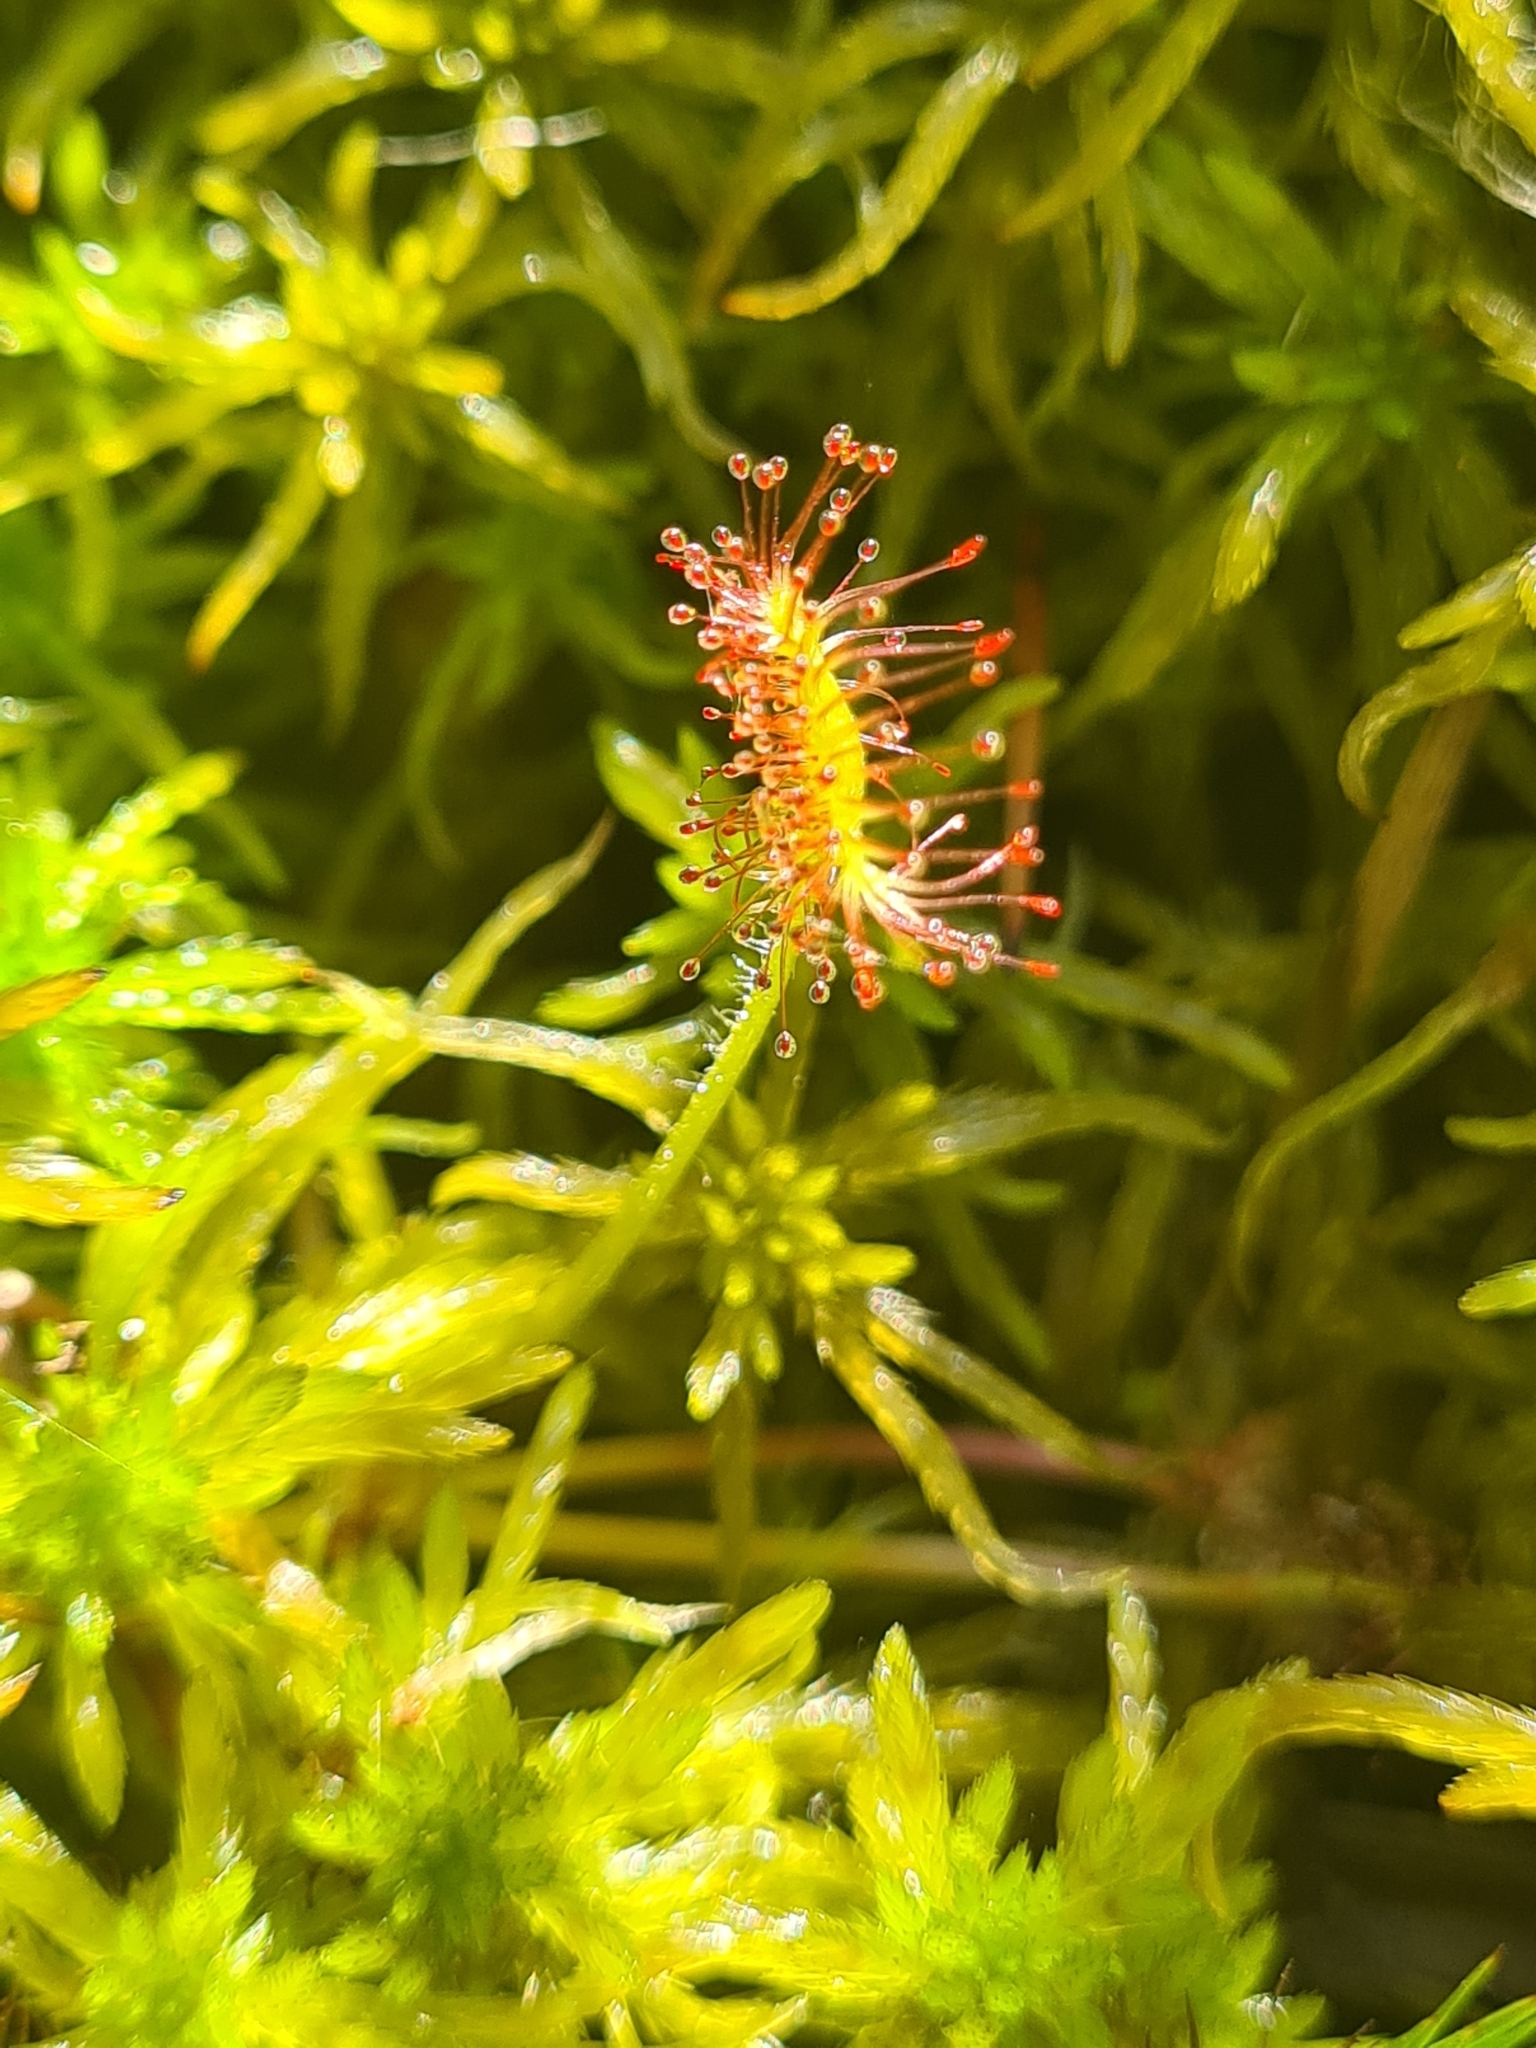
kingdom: Plantae
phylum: Tracheophyta
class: Magnoliopsida
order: Caryophyllales
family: Droseraceae
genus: Drosera
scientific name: Drosera rotundifolia
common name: Round-leaved sundew
